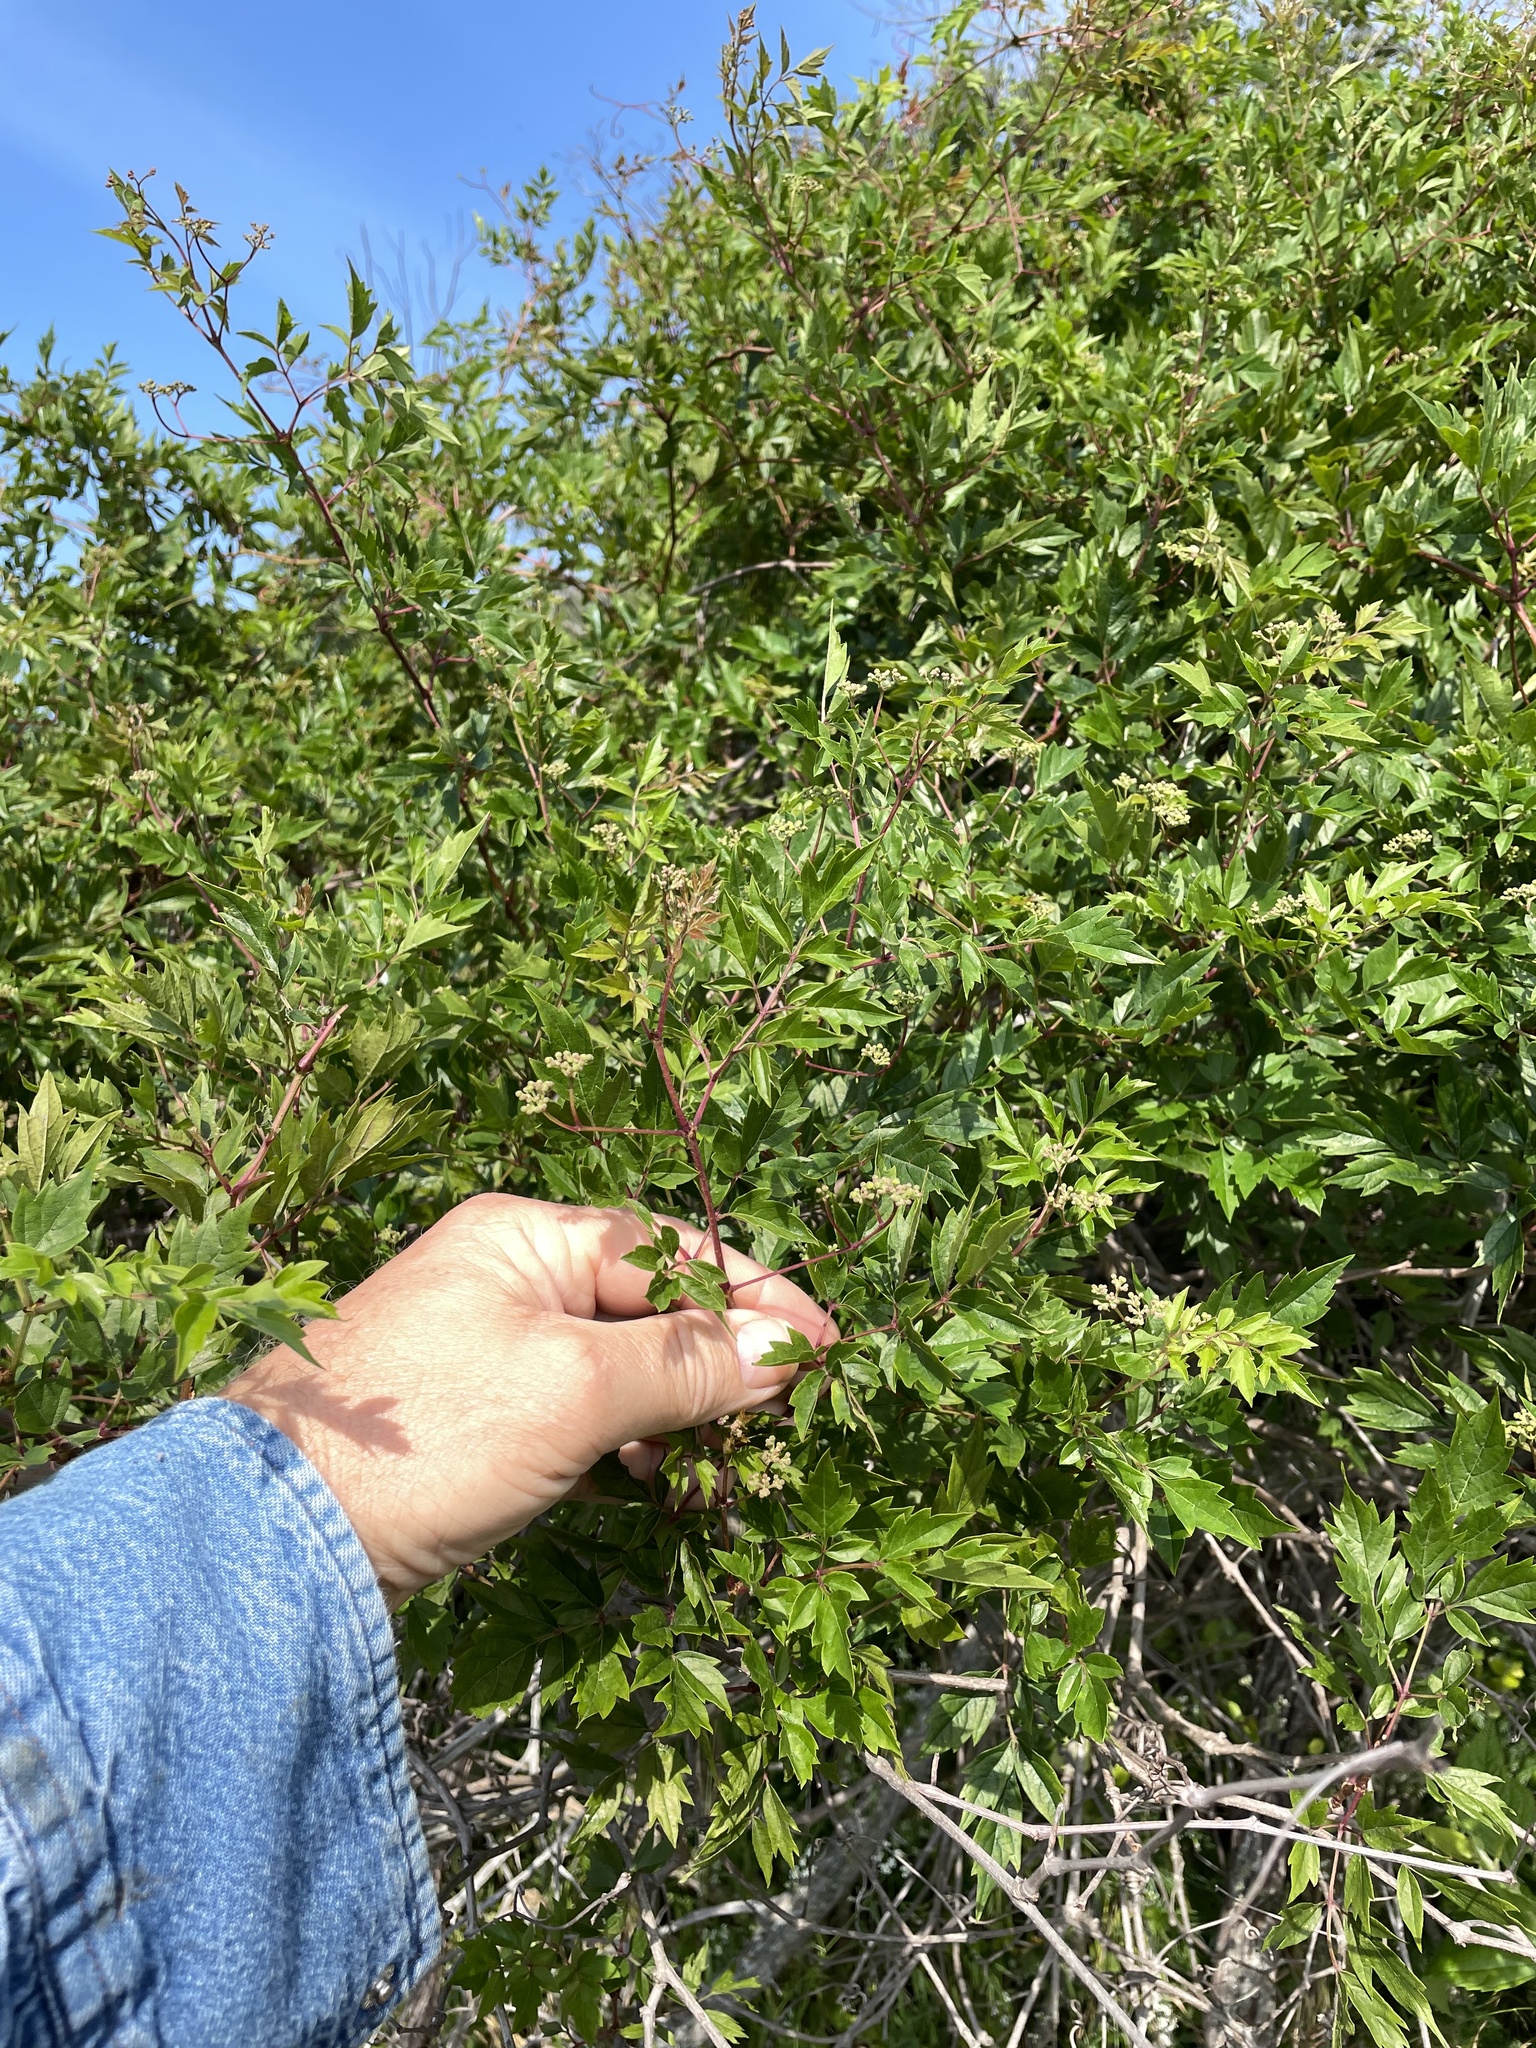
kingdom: Plantae
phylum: Tracheophyta
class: Magnoliopsida
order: Vitales
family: Vitaceae
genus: Nekemias
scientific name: Nekemias arborea
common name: Peppervine
